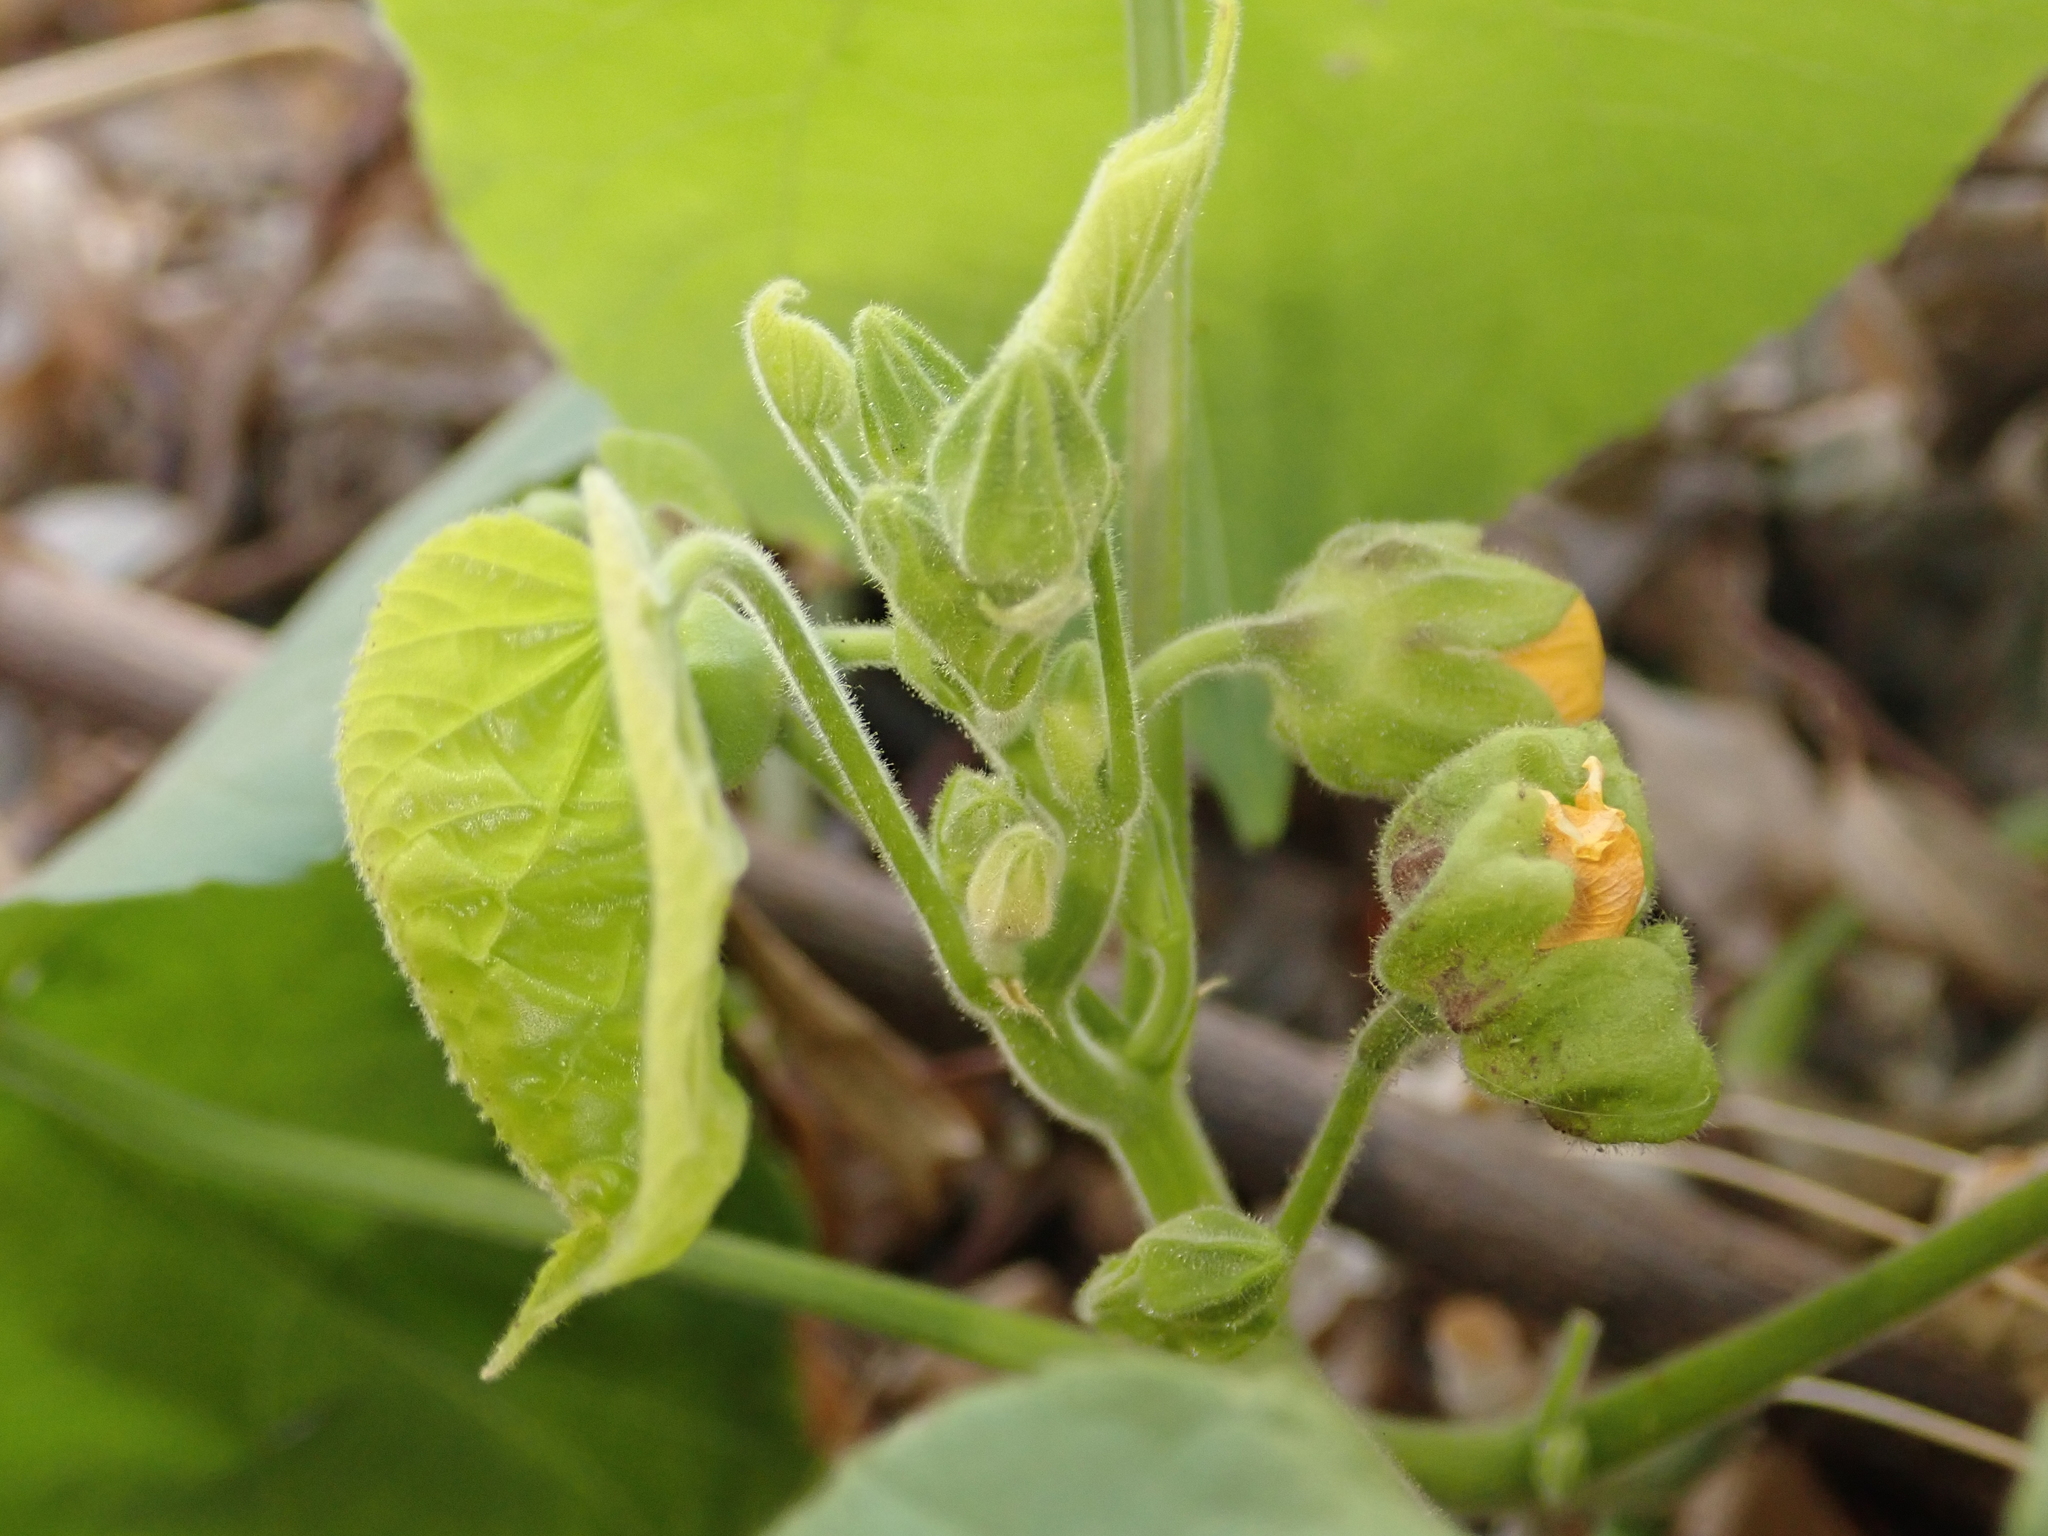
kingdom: Plantae
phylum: Tracheophyta
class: Magnoliopsida
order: Malvales
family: Malvaceae
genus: Abutilon
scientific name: Abutilon theophrasti
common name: Velvetleaf
